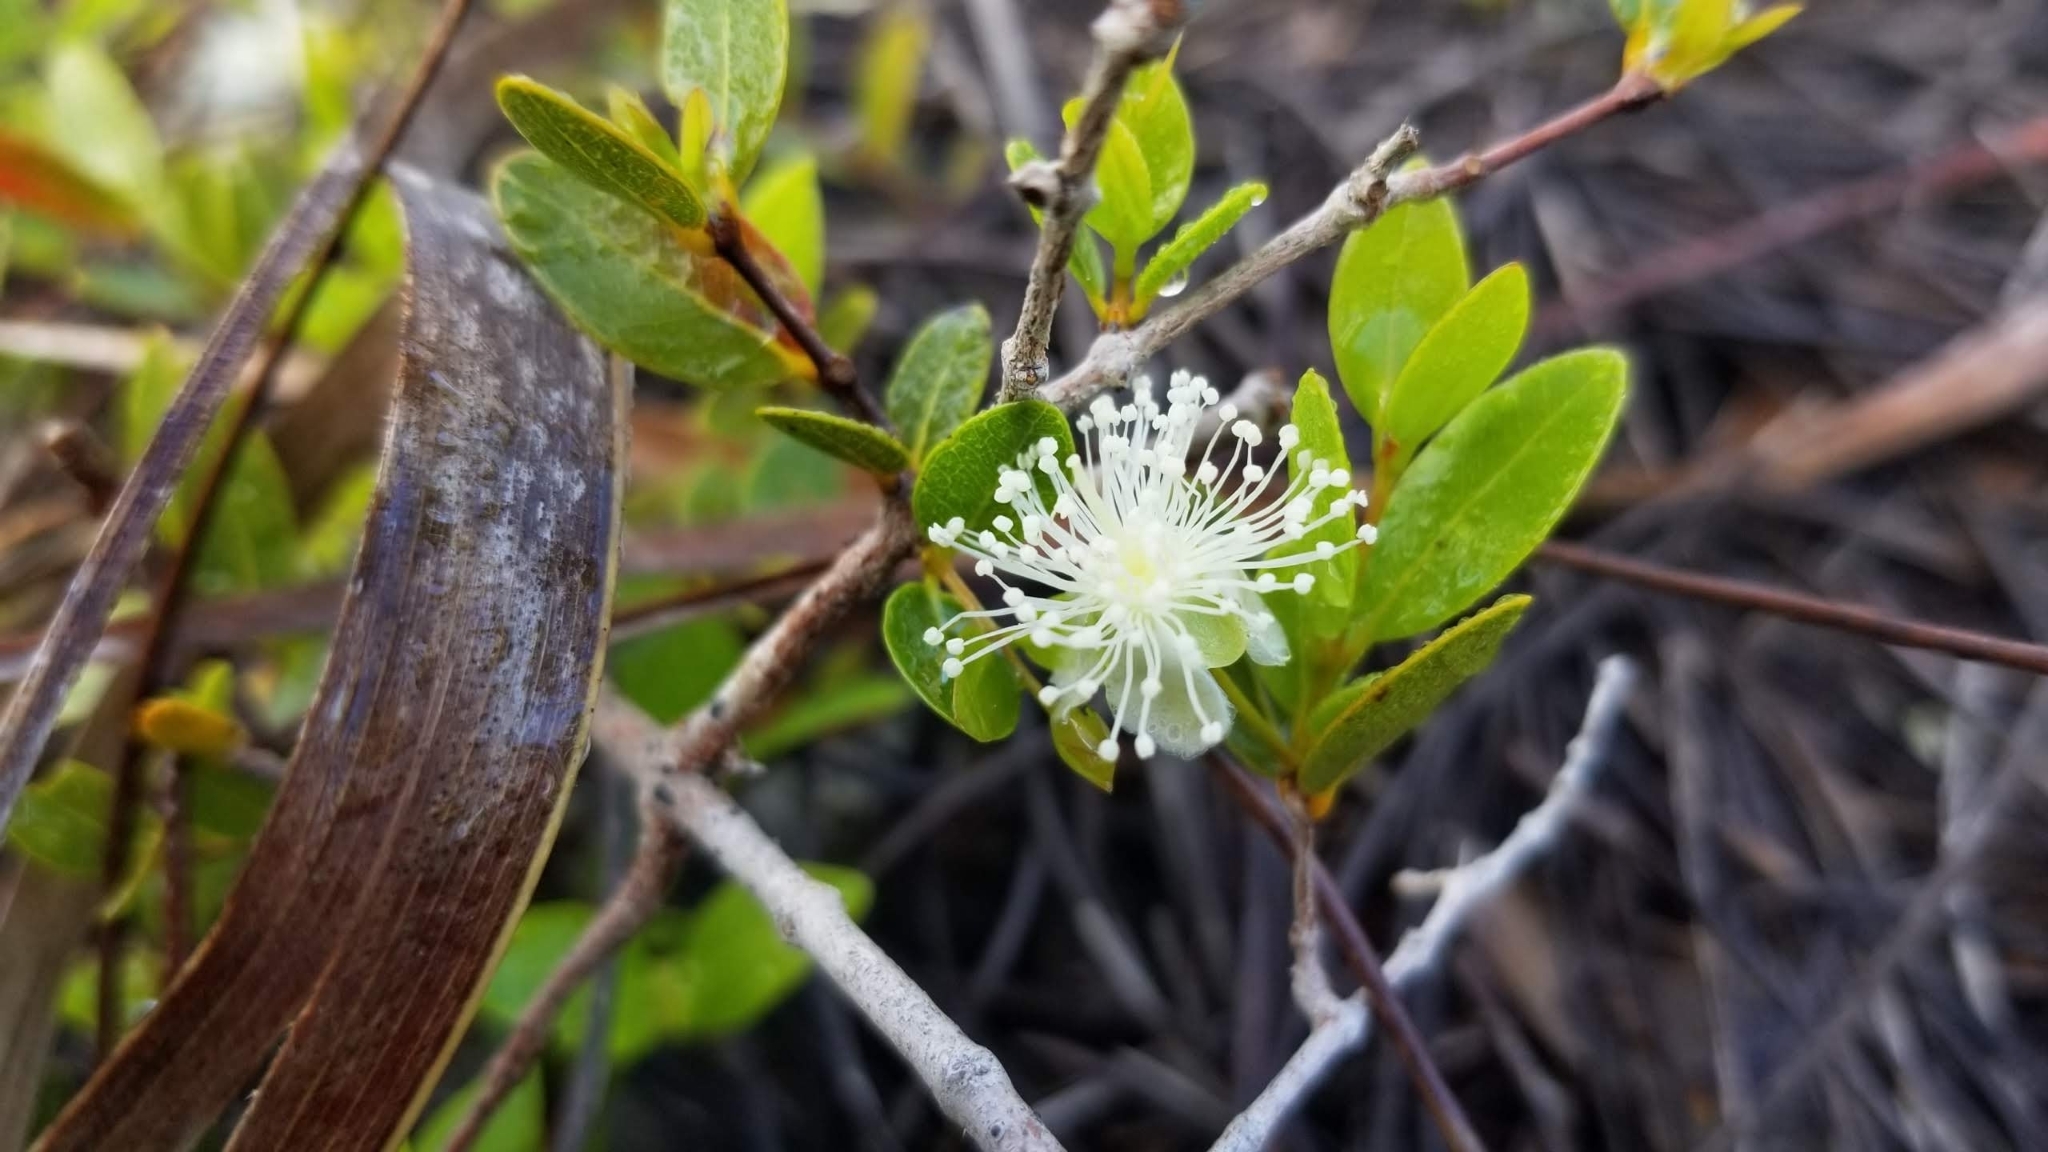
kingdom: Plantae
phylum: Tracheophyta
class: Magnoliopsida
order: Myrtales
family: Myrtaceae
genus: Myrcianthes
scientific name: Myrcianthes fragrans
